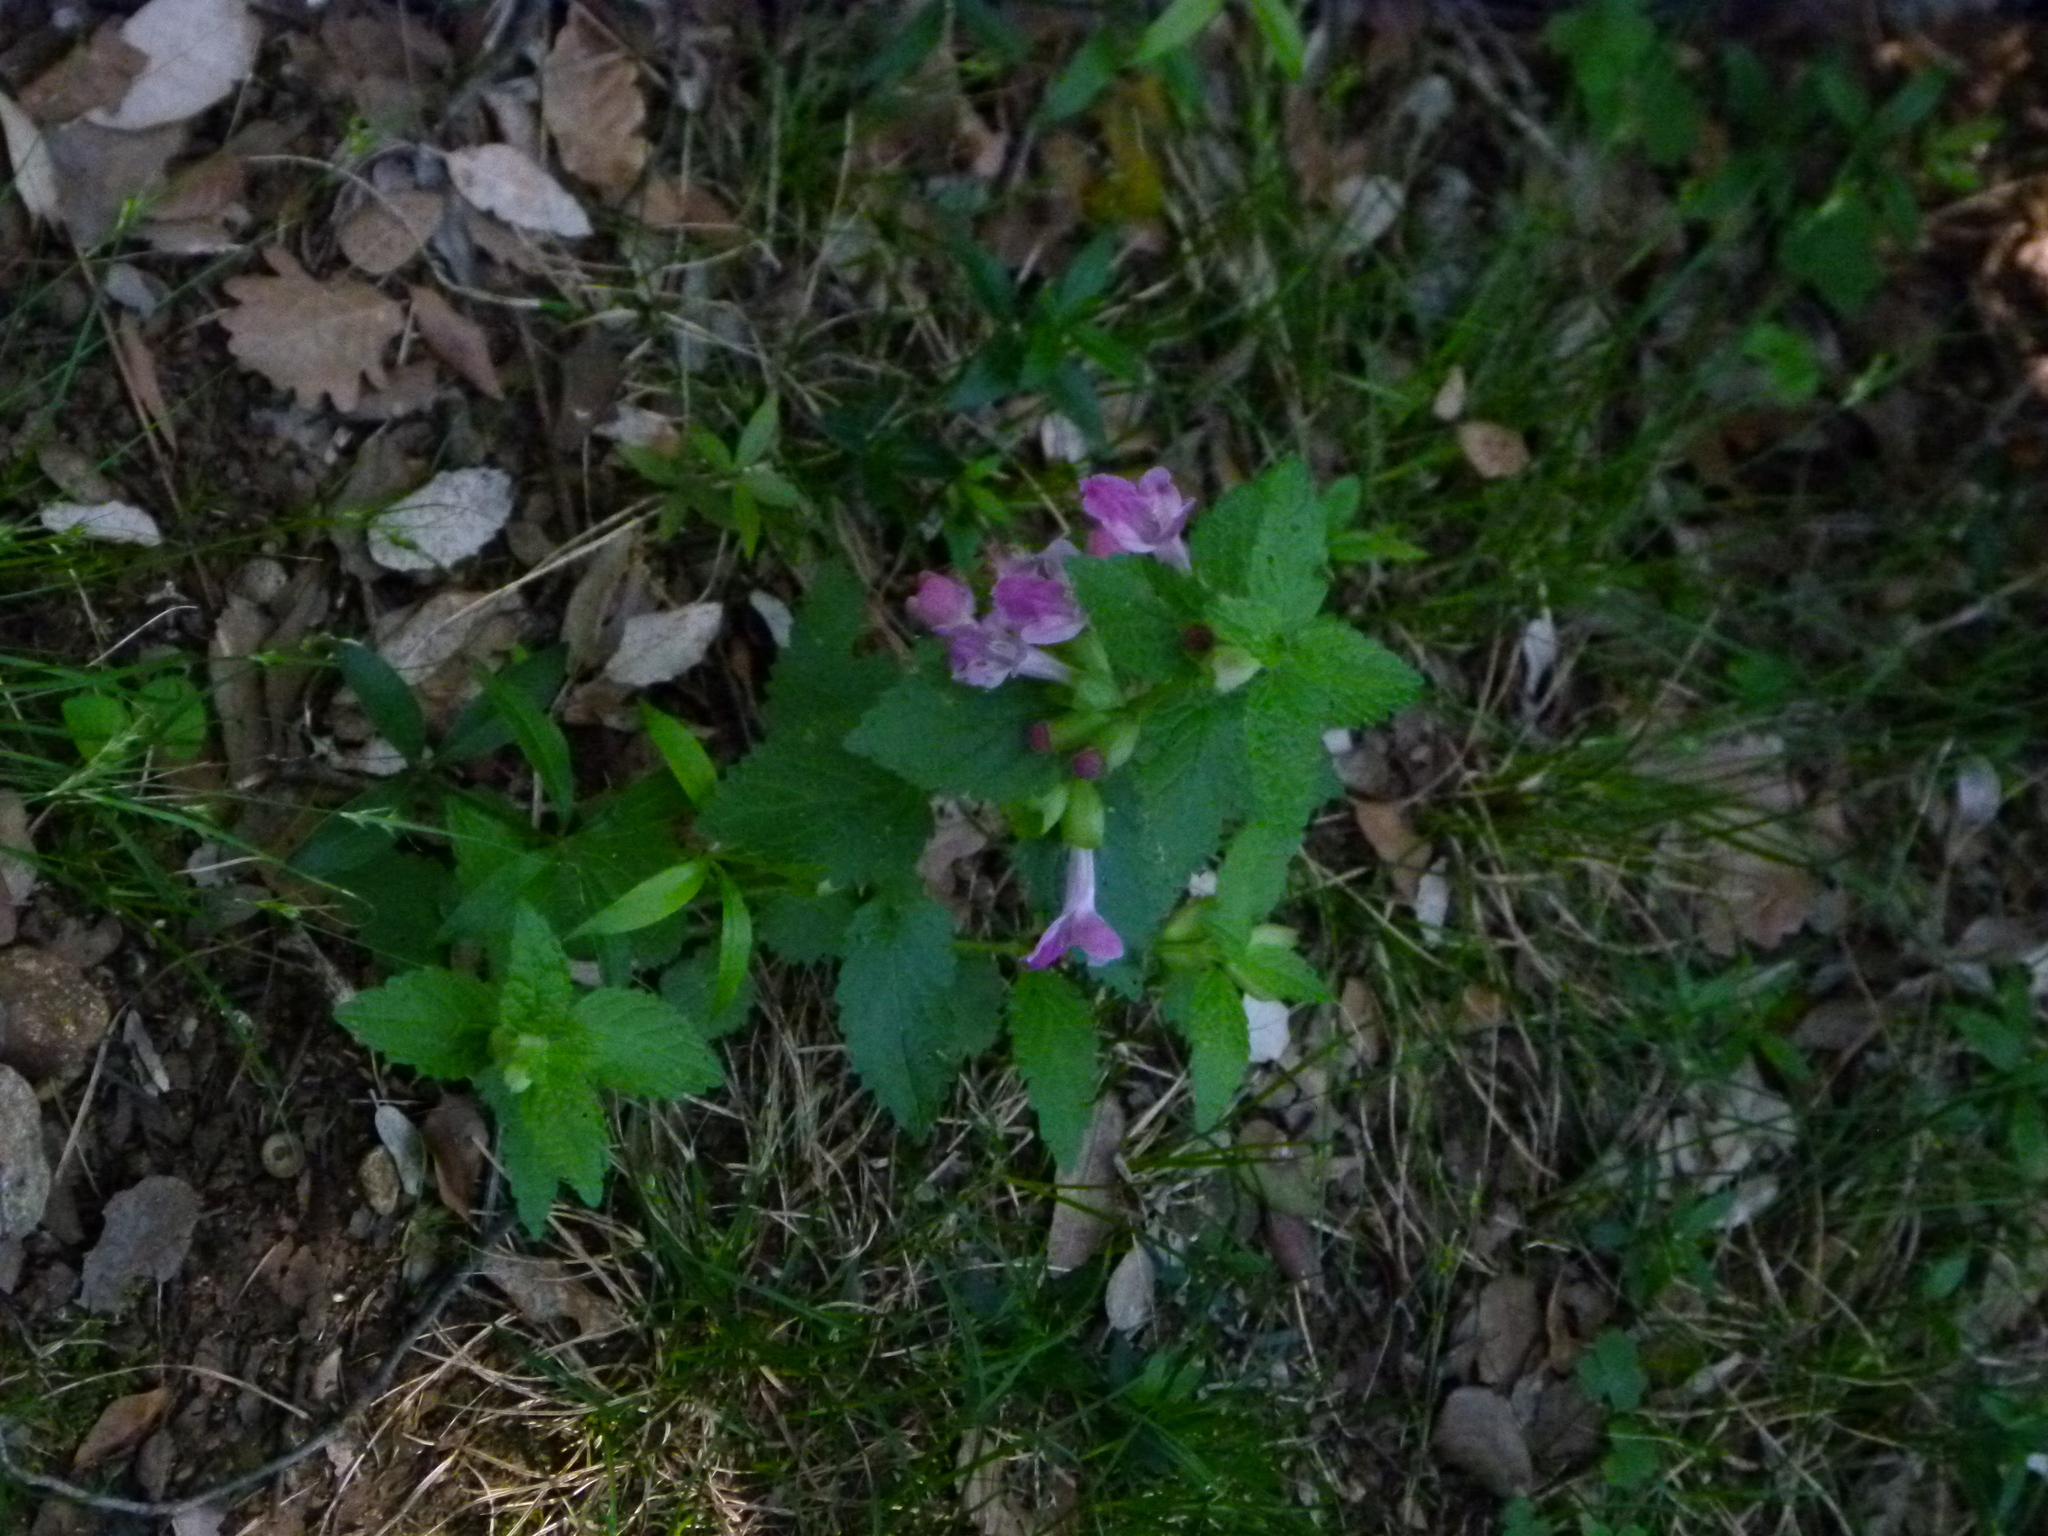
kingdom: Plantae
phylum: Tracheophyta
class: Magnoliopsida
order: Lamiales
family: Lamiaceae
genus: Melittis
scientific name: Melittis melissophyllum
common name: Bastard balm
